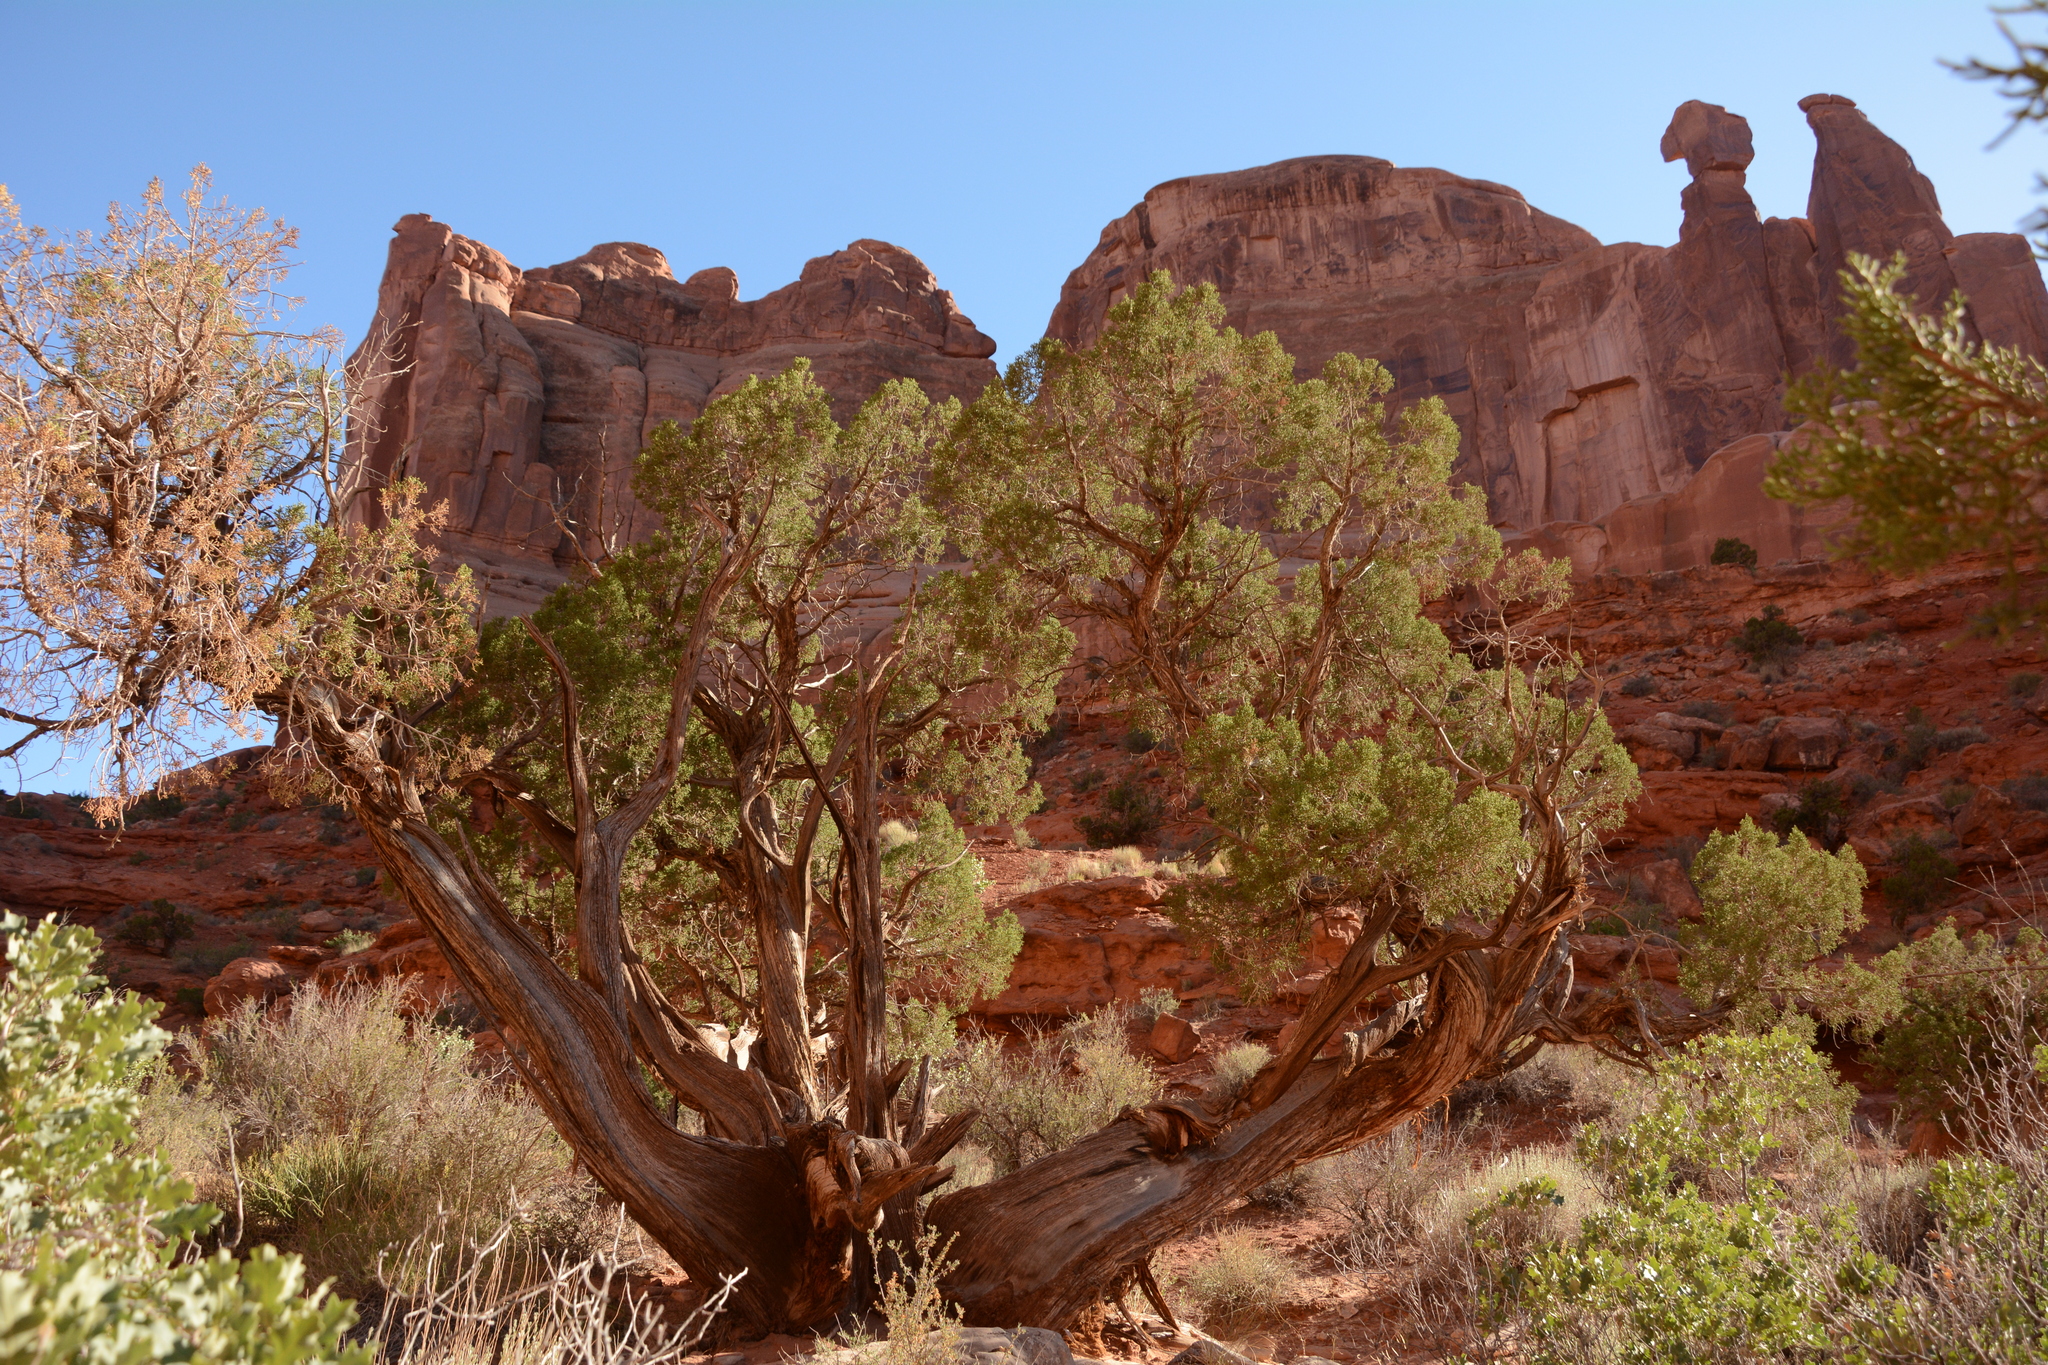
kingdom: Plantae
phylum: Tracheophyta
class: Pinopsida
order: Pinales
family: Cupressaceae
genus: Juniperus
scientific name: Juniperus osteosperma
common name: Utah juniper
